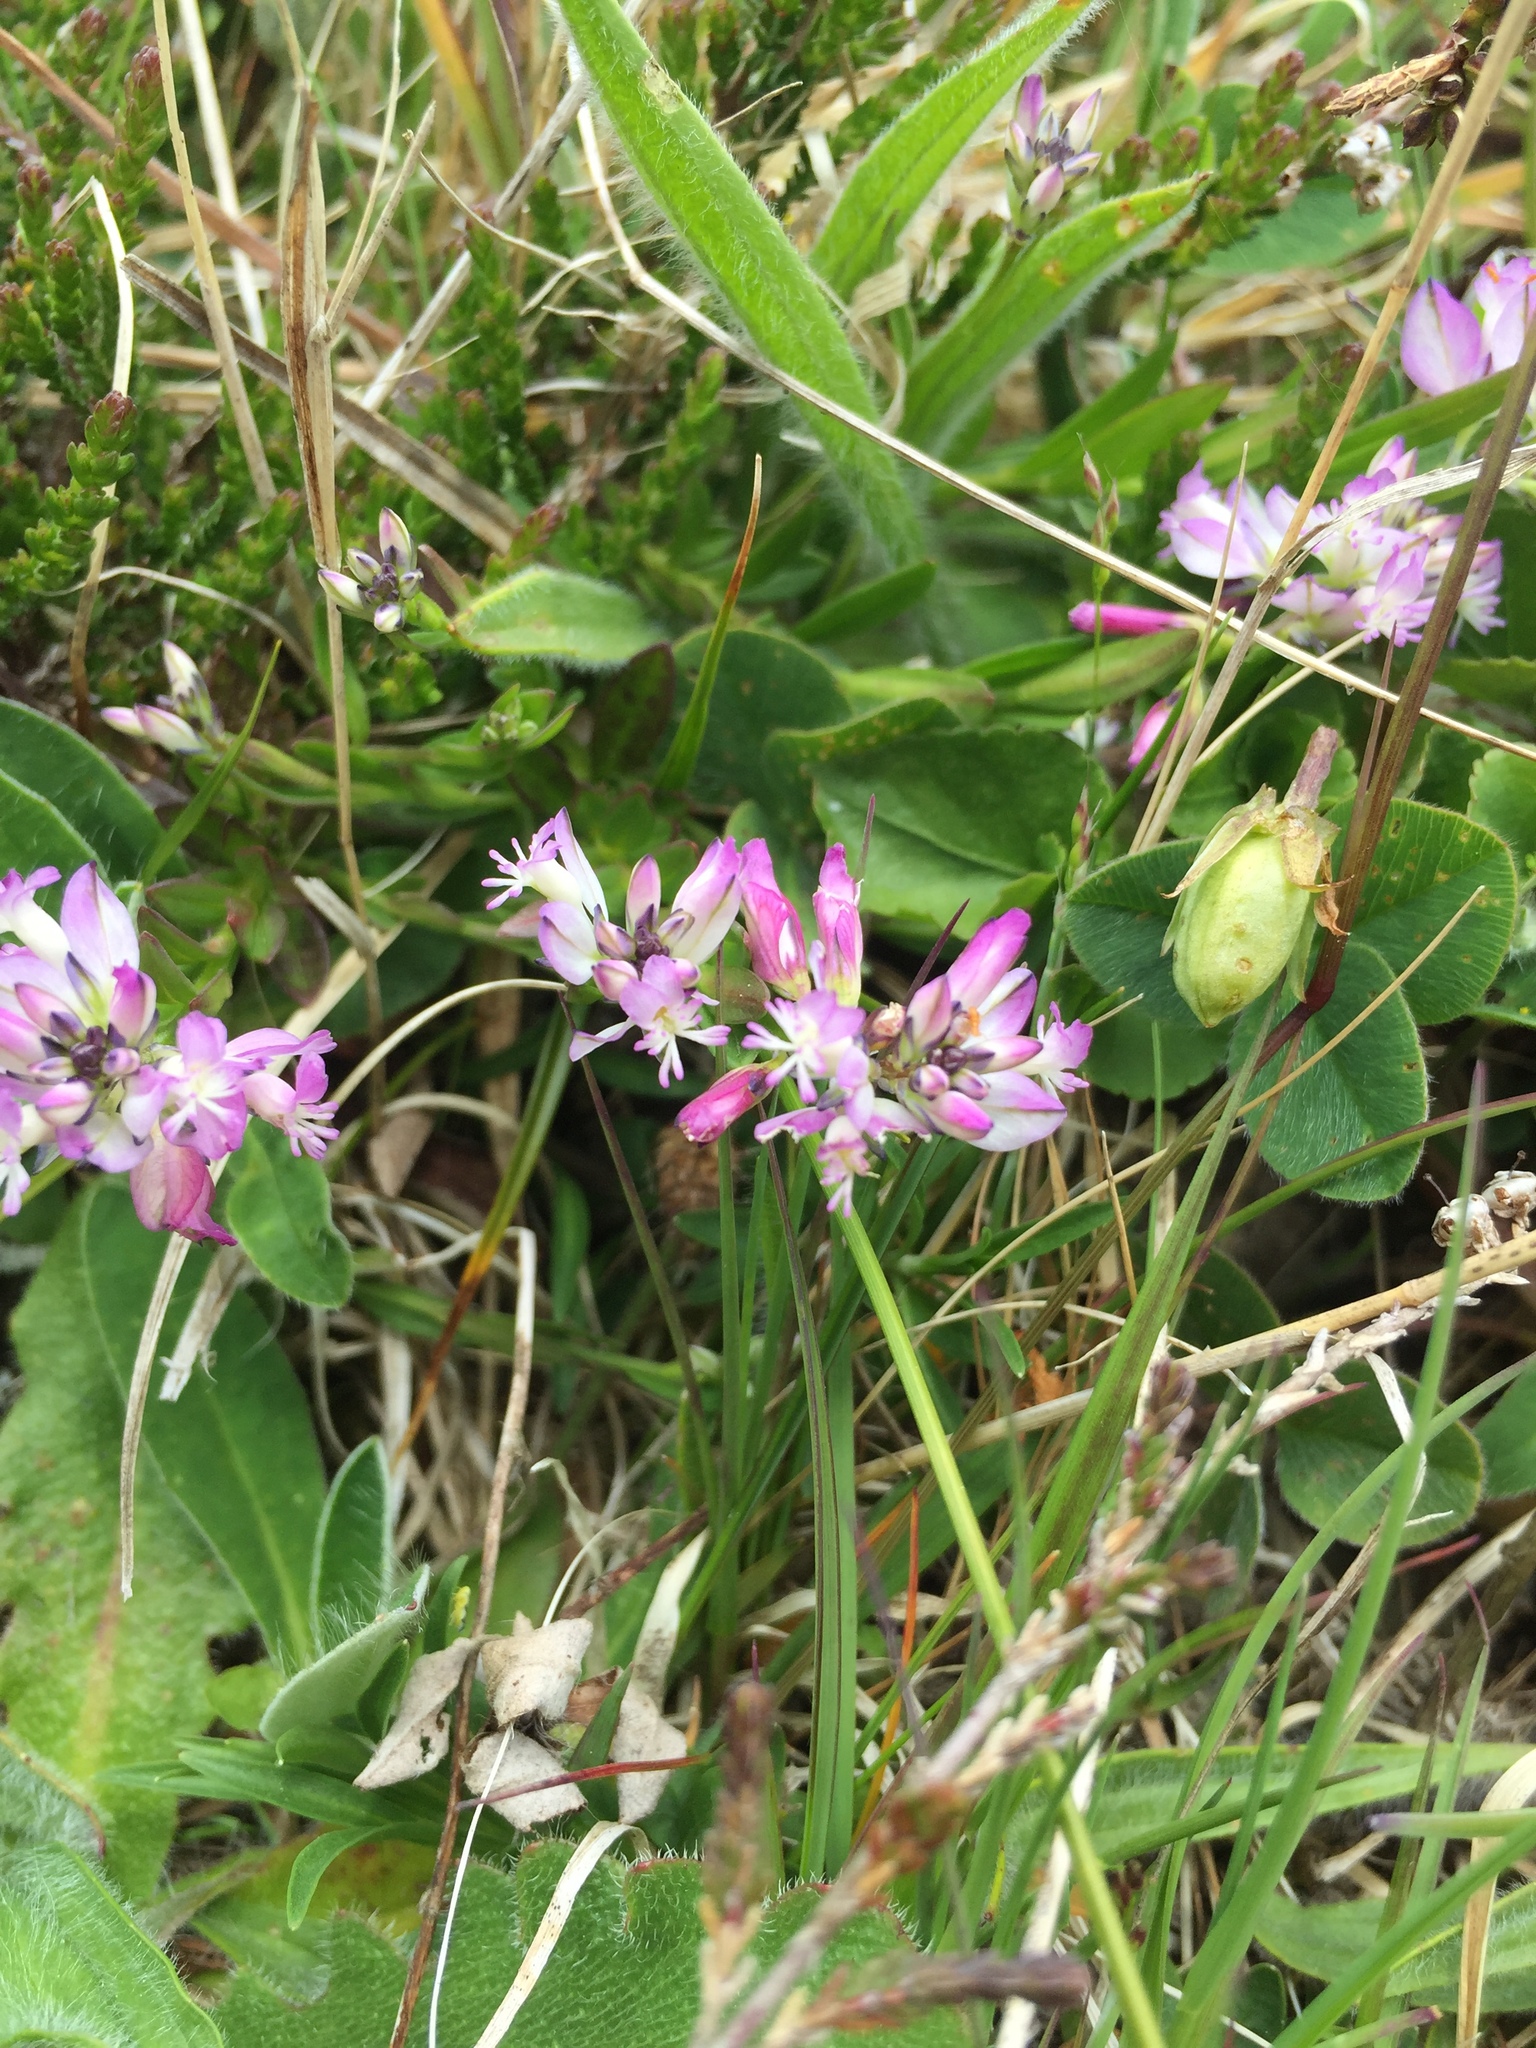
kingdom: Plantae
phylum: Tracheophyta
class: Magnoliopsida
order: Fabales
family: Polygalaceae
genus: Polygala
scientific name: Polygala vulgaris
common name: Common milkwort
